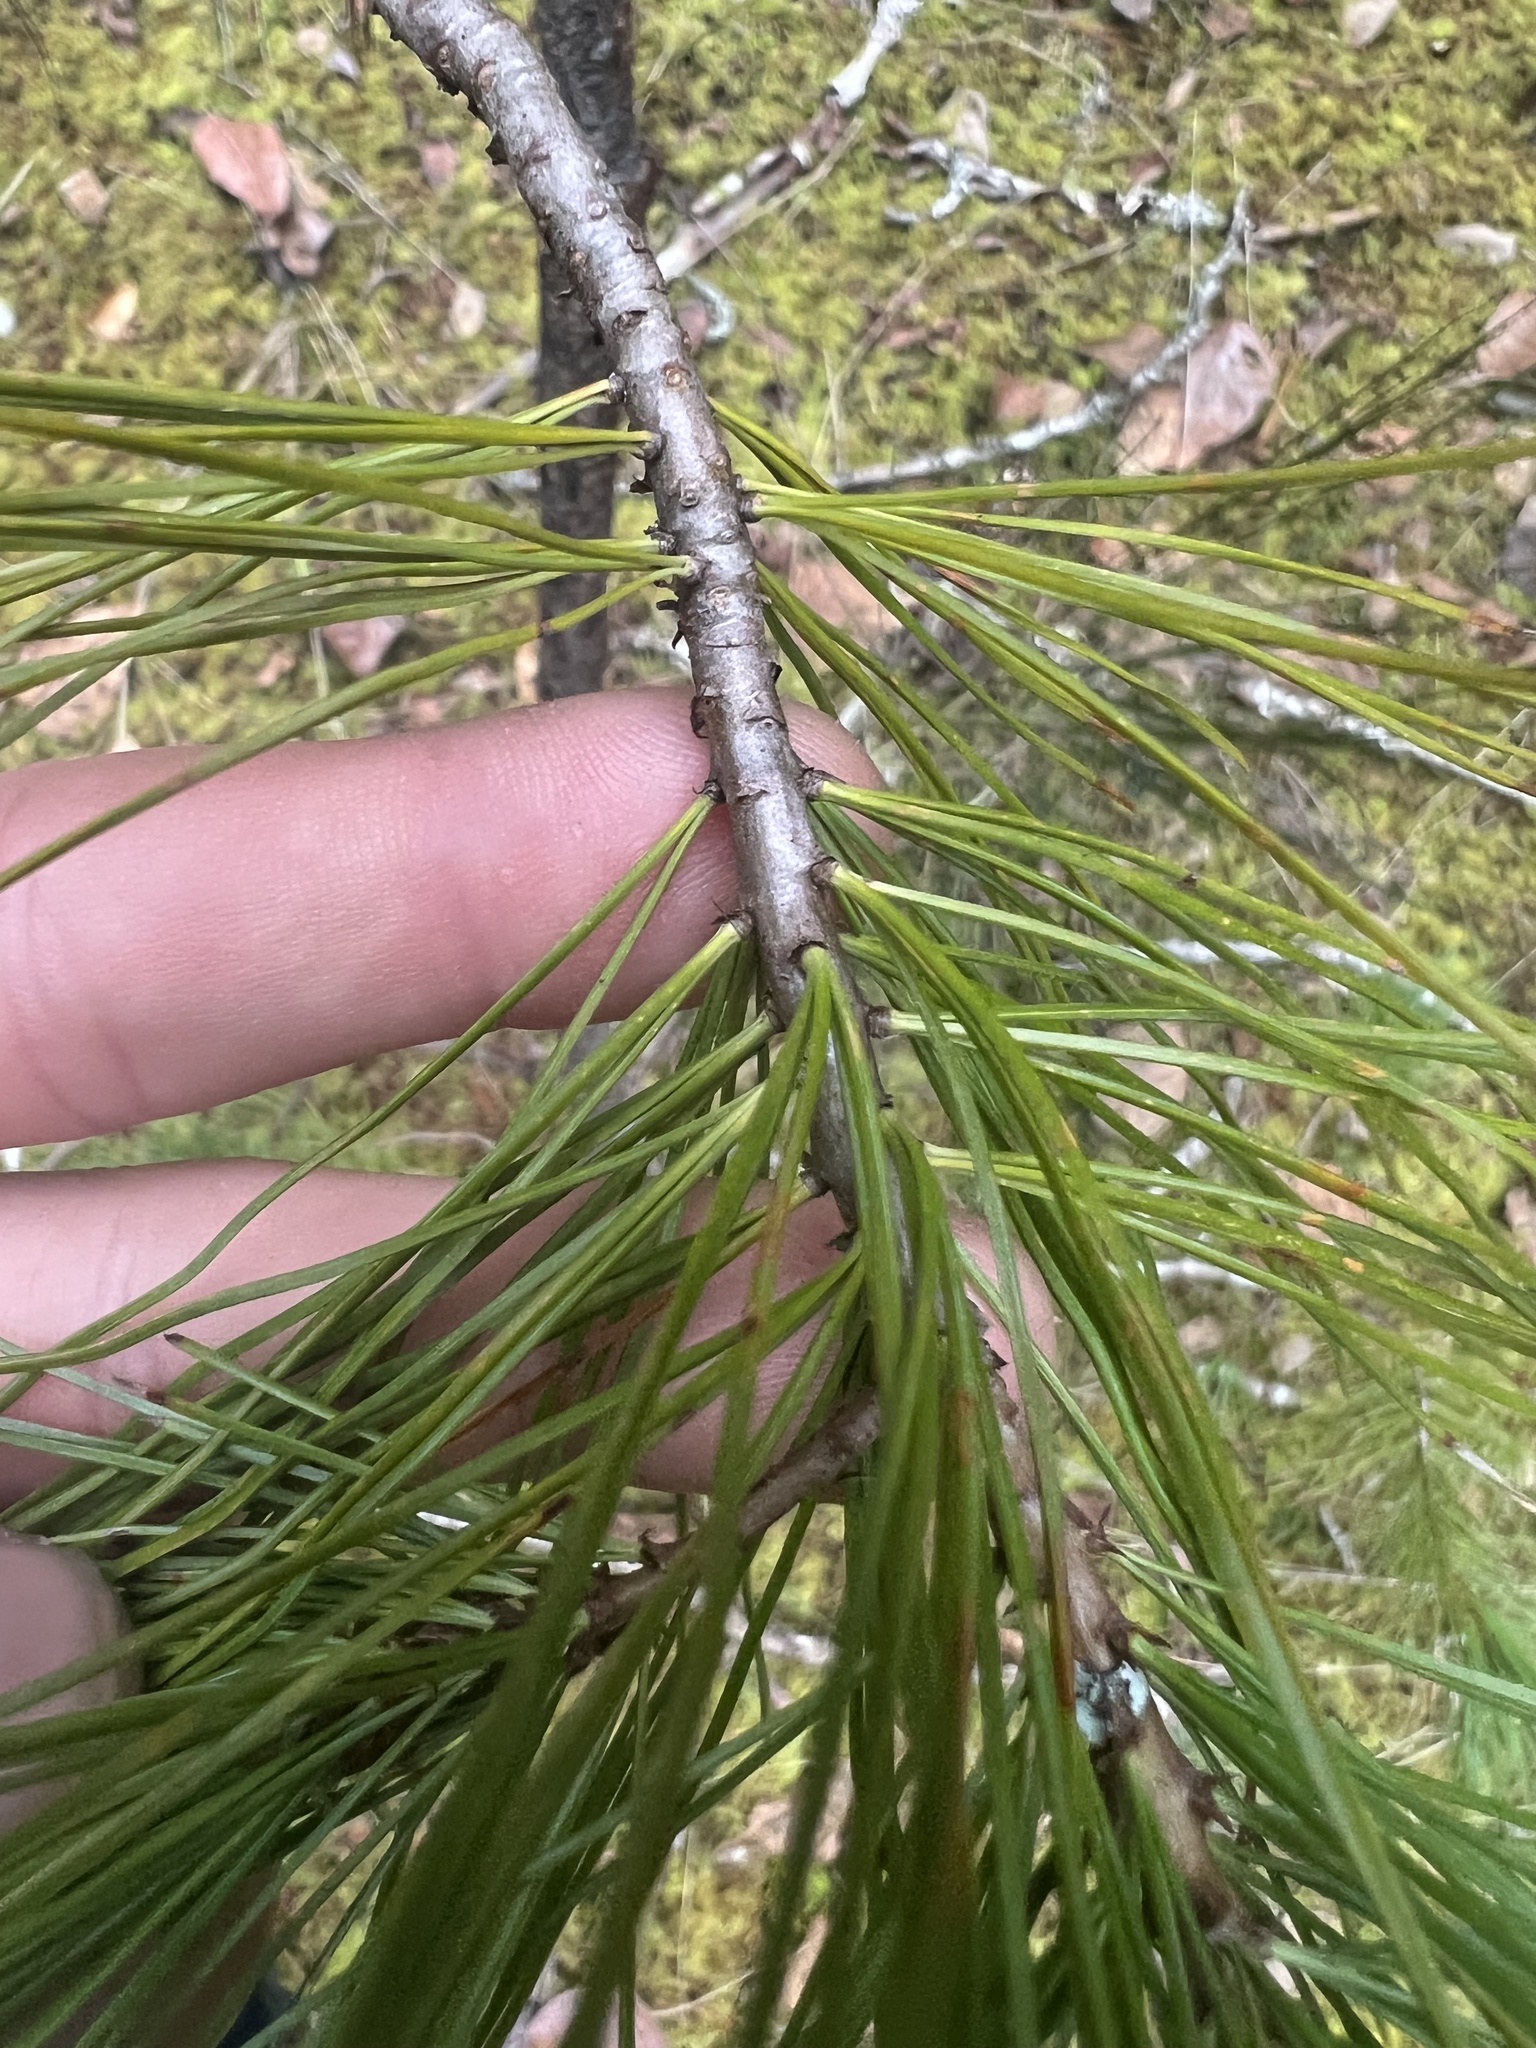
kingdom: Plantae
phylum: Tracheophyta
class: Pinopsida
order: Pinales
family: Pinaceae
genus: Pinus
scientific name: Pinus monticola
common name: Western white pine
